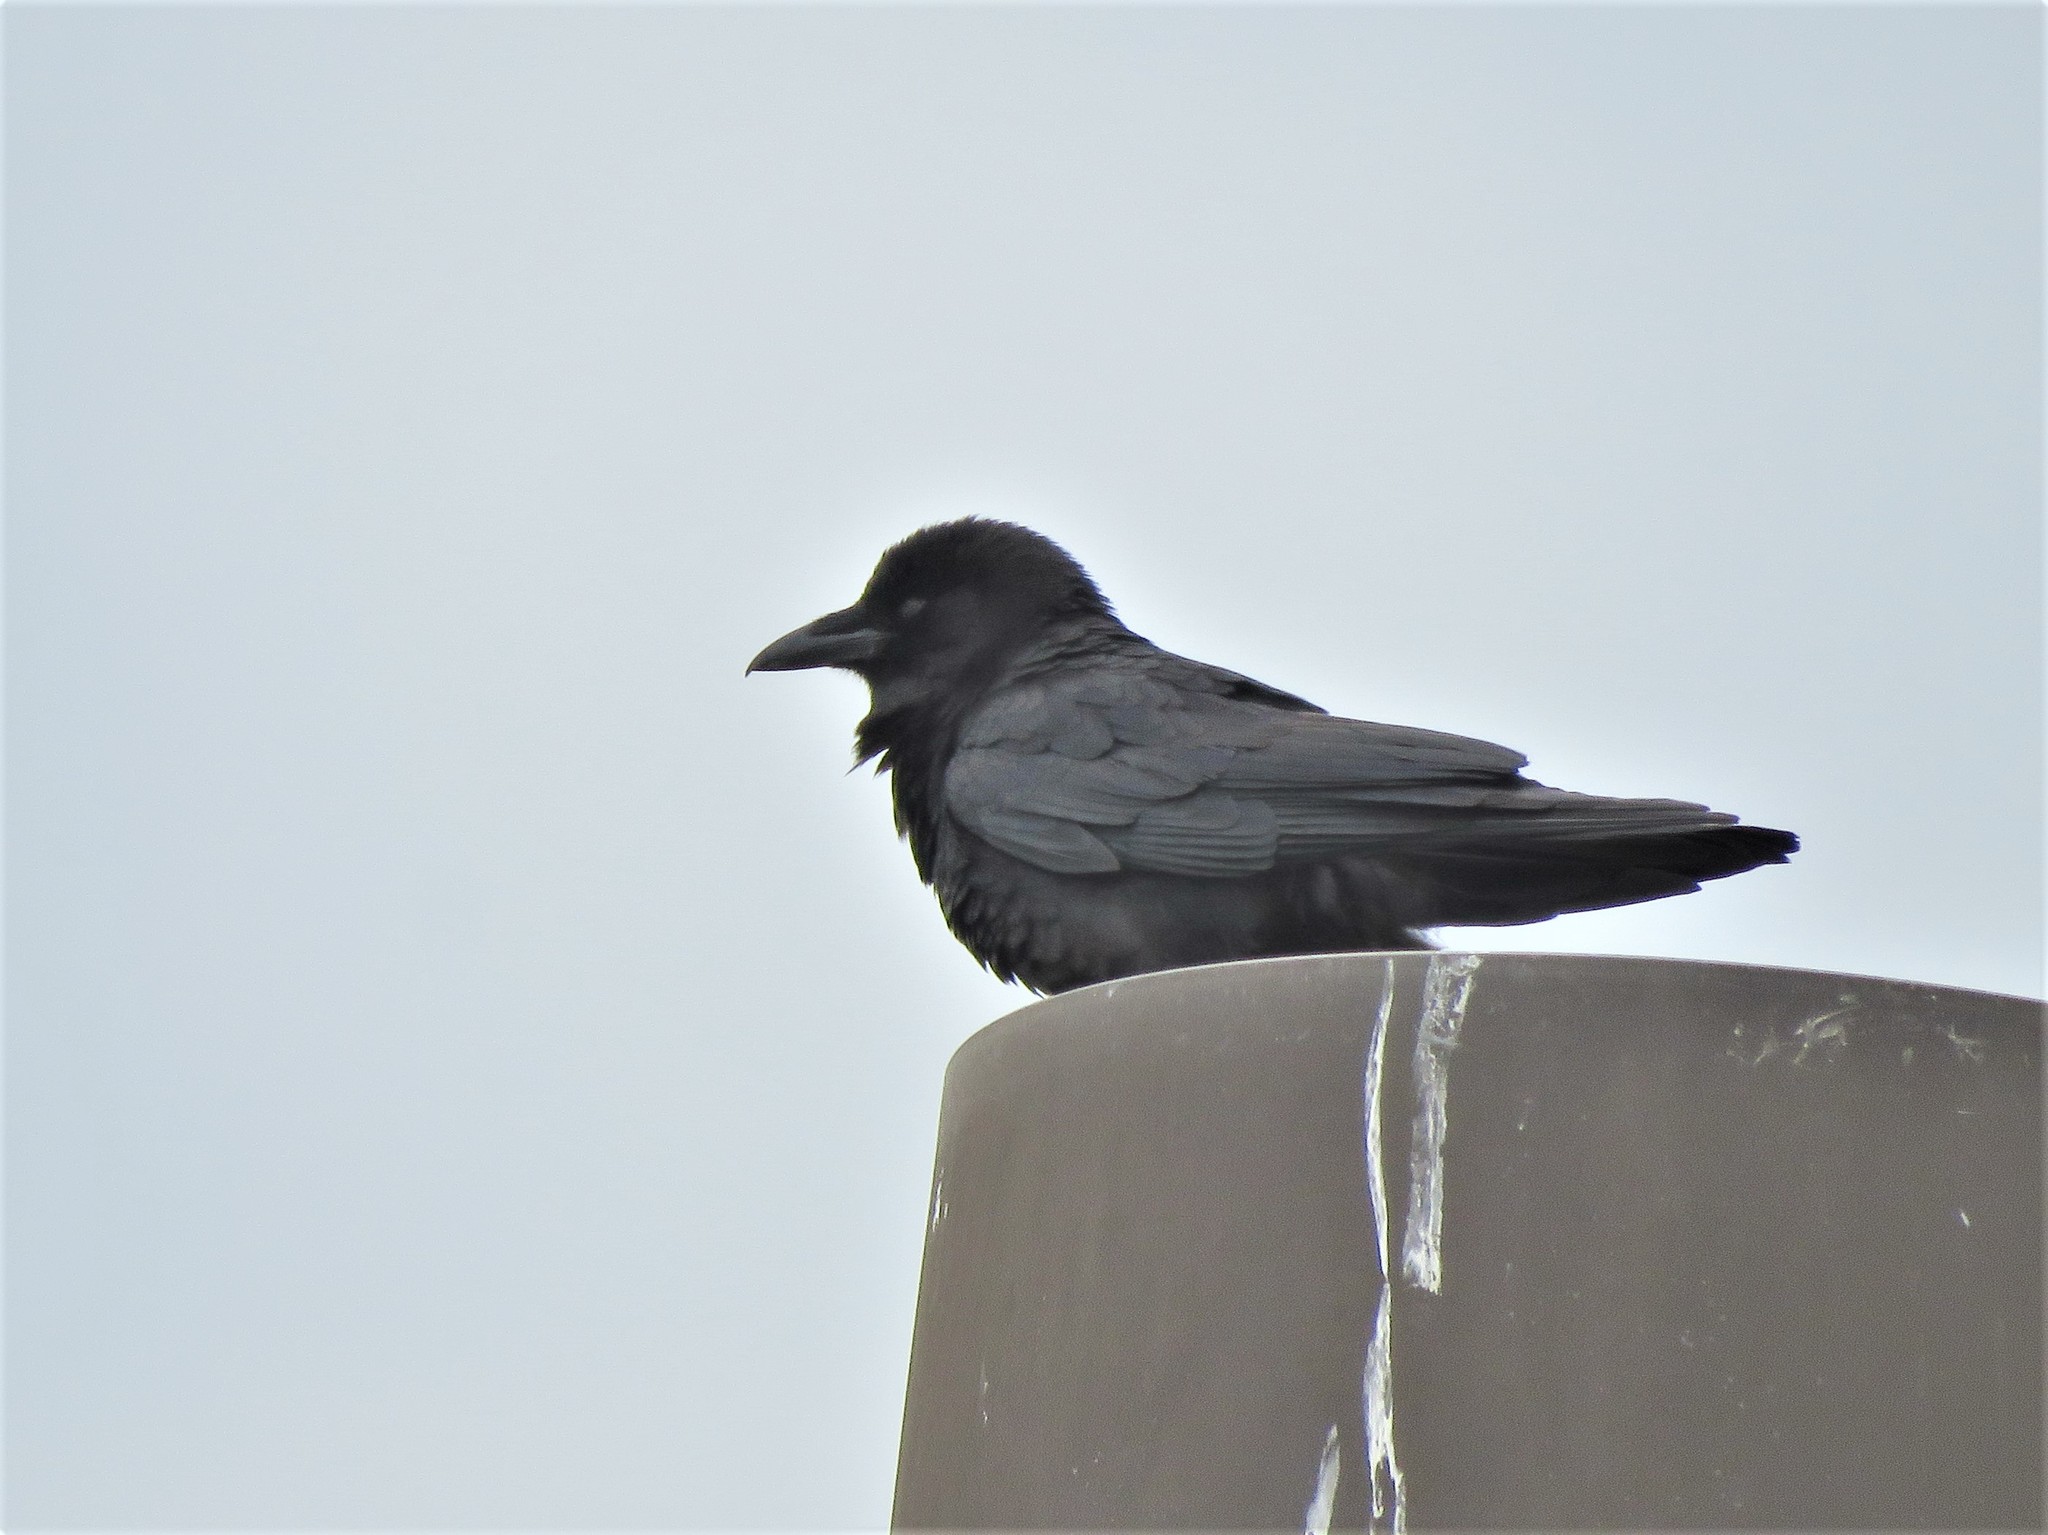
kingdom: Animalia
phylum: Chordata
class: Aves
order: Passeriformes
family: Corvidae
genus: Corvus
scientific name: Corvus brachyrhynchos
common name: American crow
